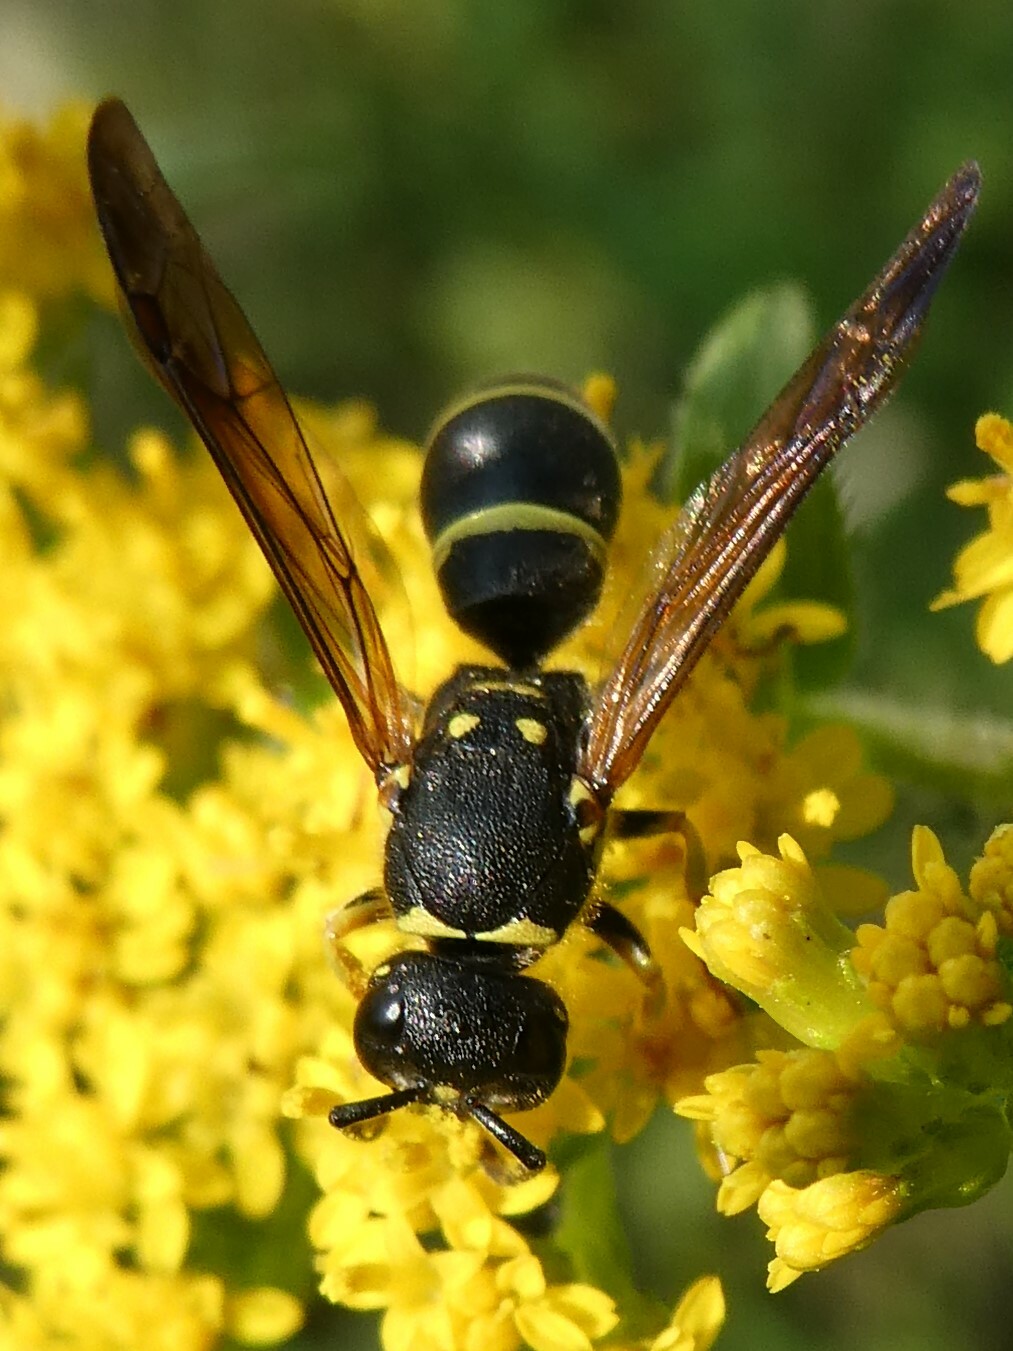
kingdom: Animalia
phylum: Arthropoda
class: Insecta
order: Hymenoptera
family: Vespidae
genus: Ancistrocerus
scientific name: Ancistrocerus adiabatus
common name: Bramble mason wasp
